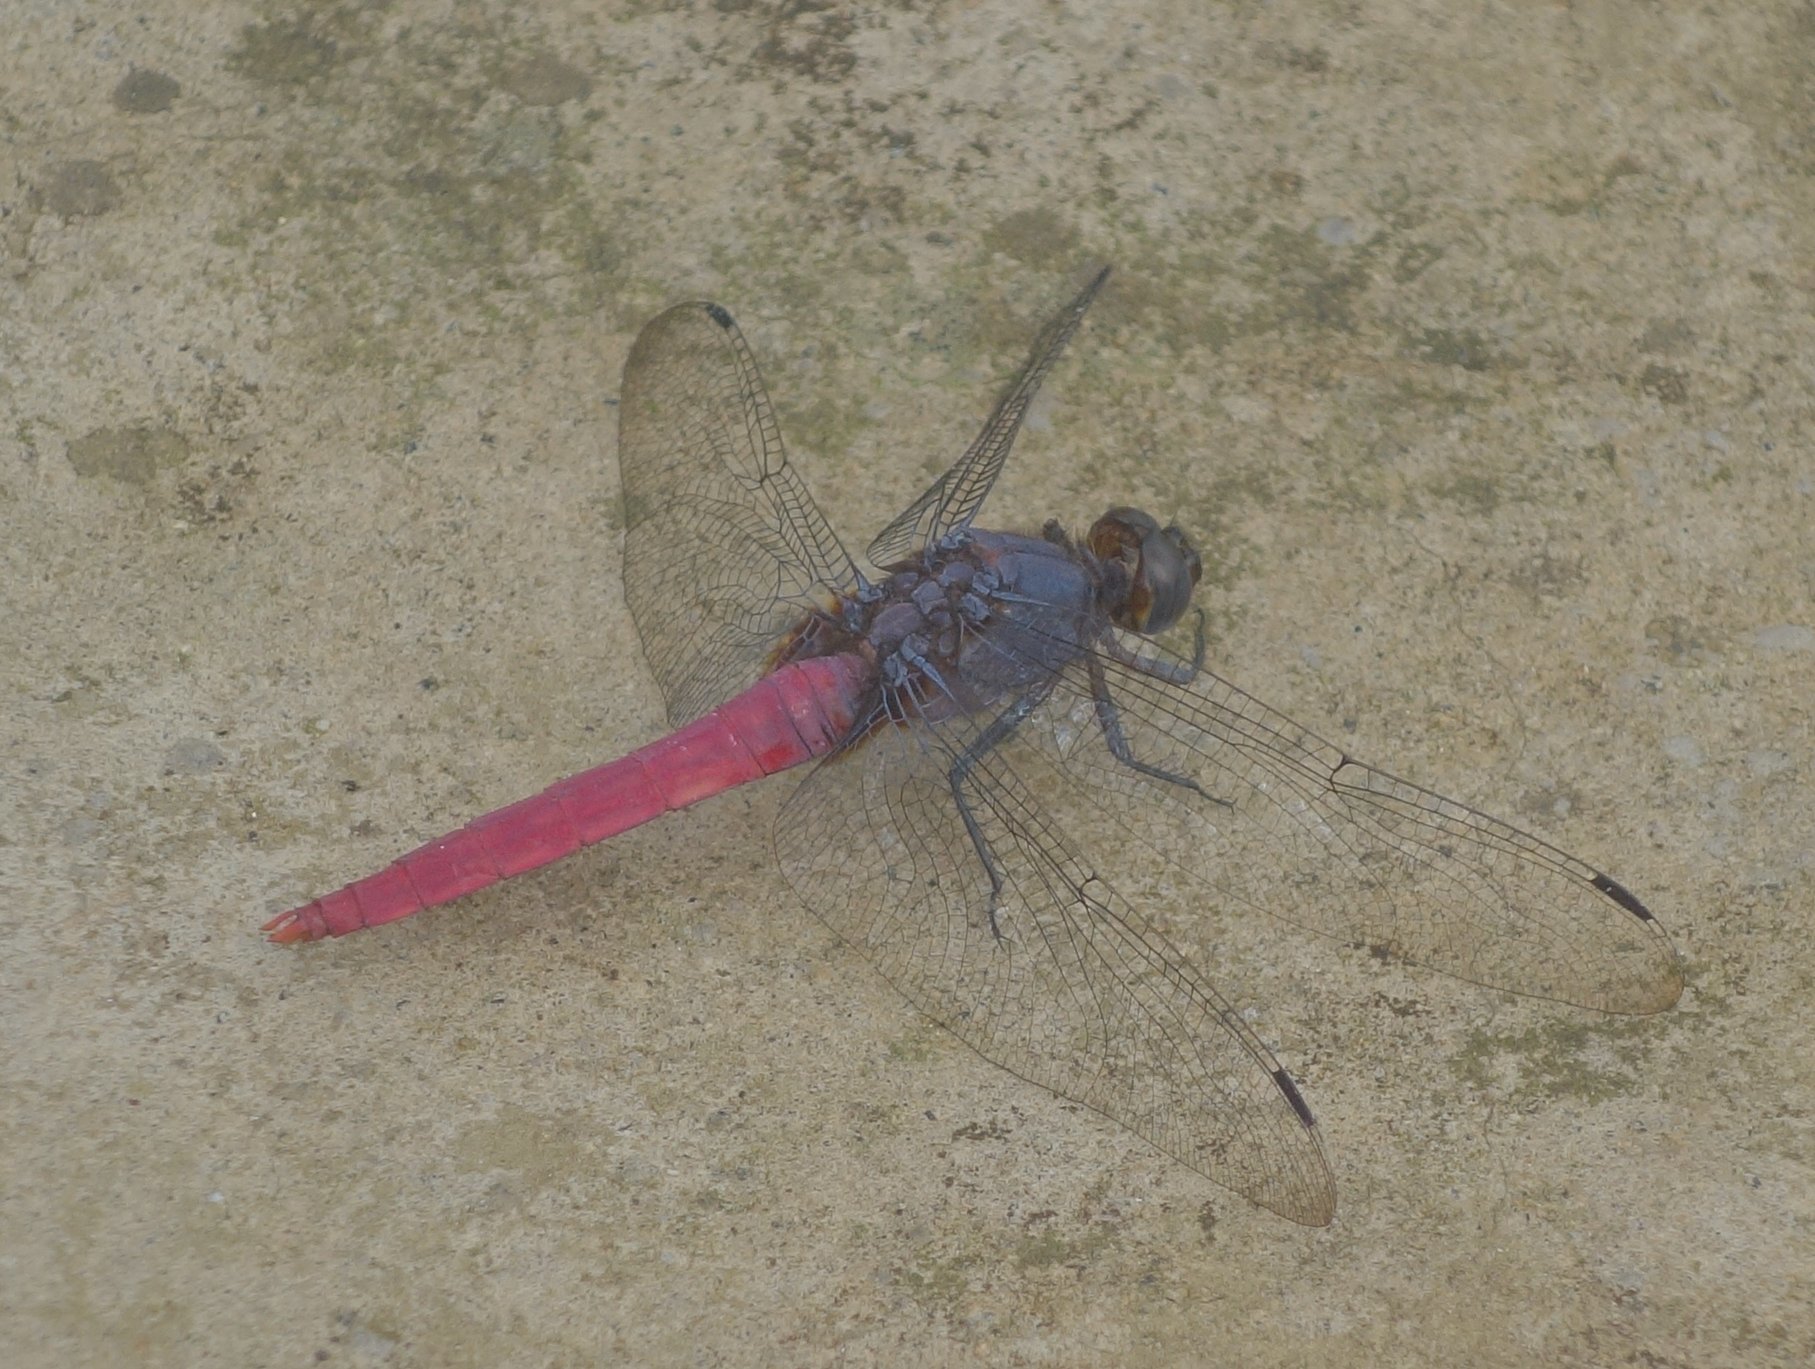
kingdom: Animalia
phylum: Arthropoda
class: Insecta
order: Odonata
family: Libellulidae
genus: Orthetrum
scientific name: Orthetrum pruinosum
